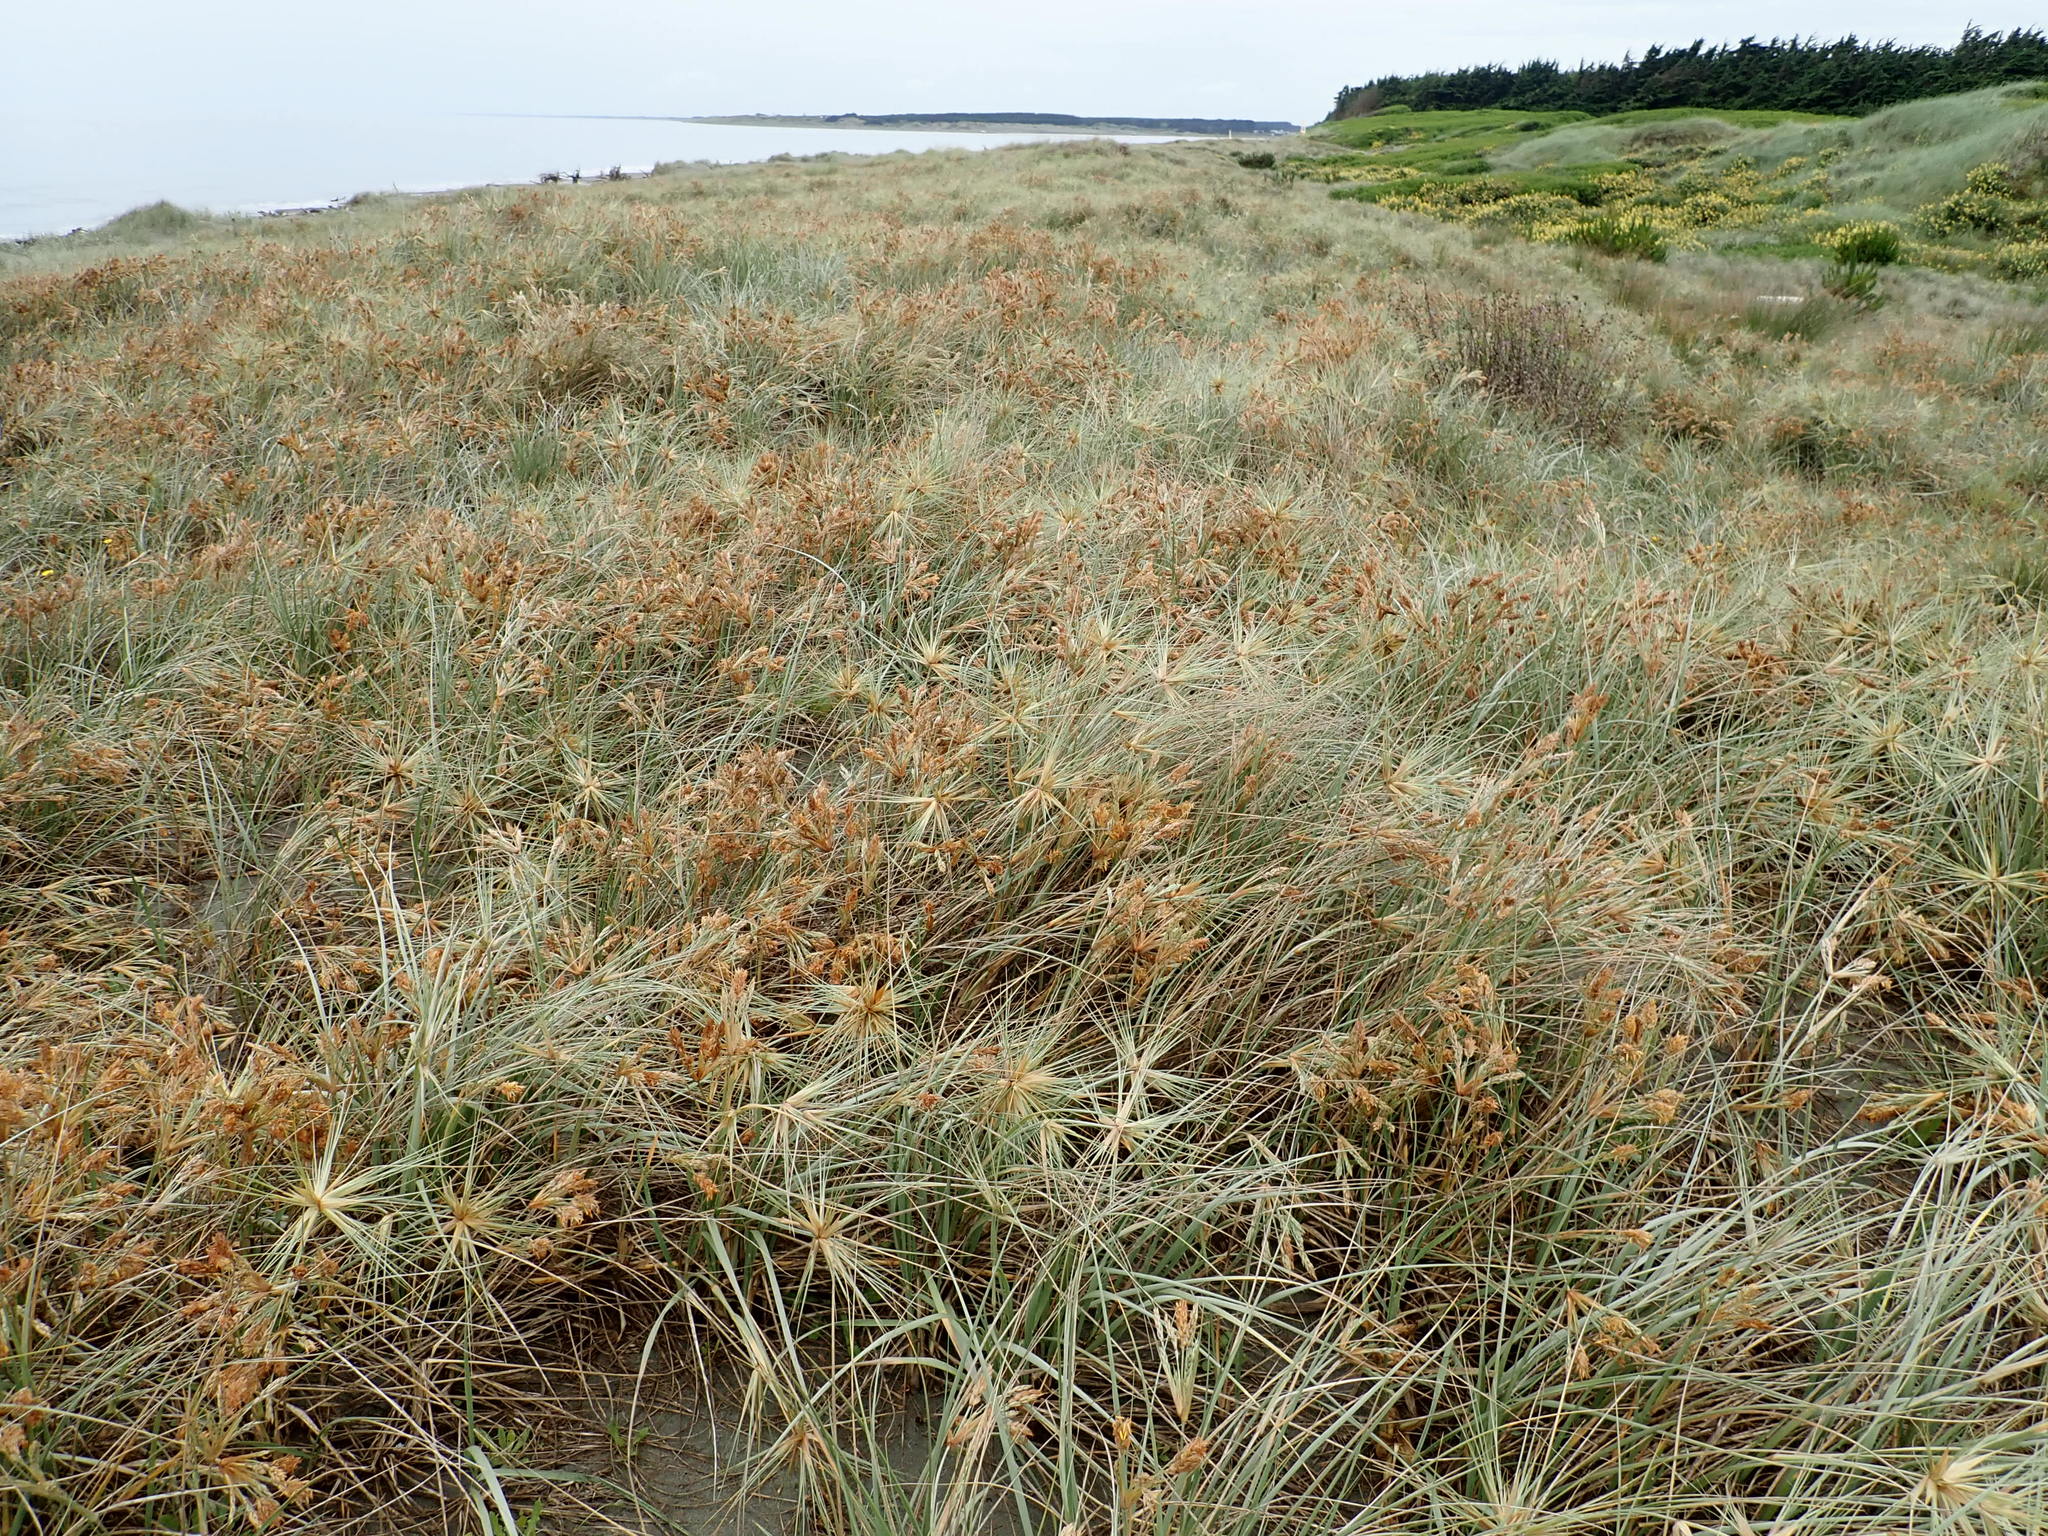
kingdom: Plantae
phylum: Tracheophyta
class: Liliopsida
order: Poales
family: Poaceae
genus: Spinifex
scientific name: Spinifex sericeus
